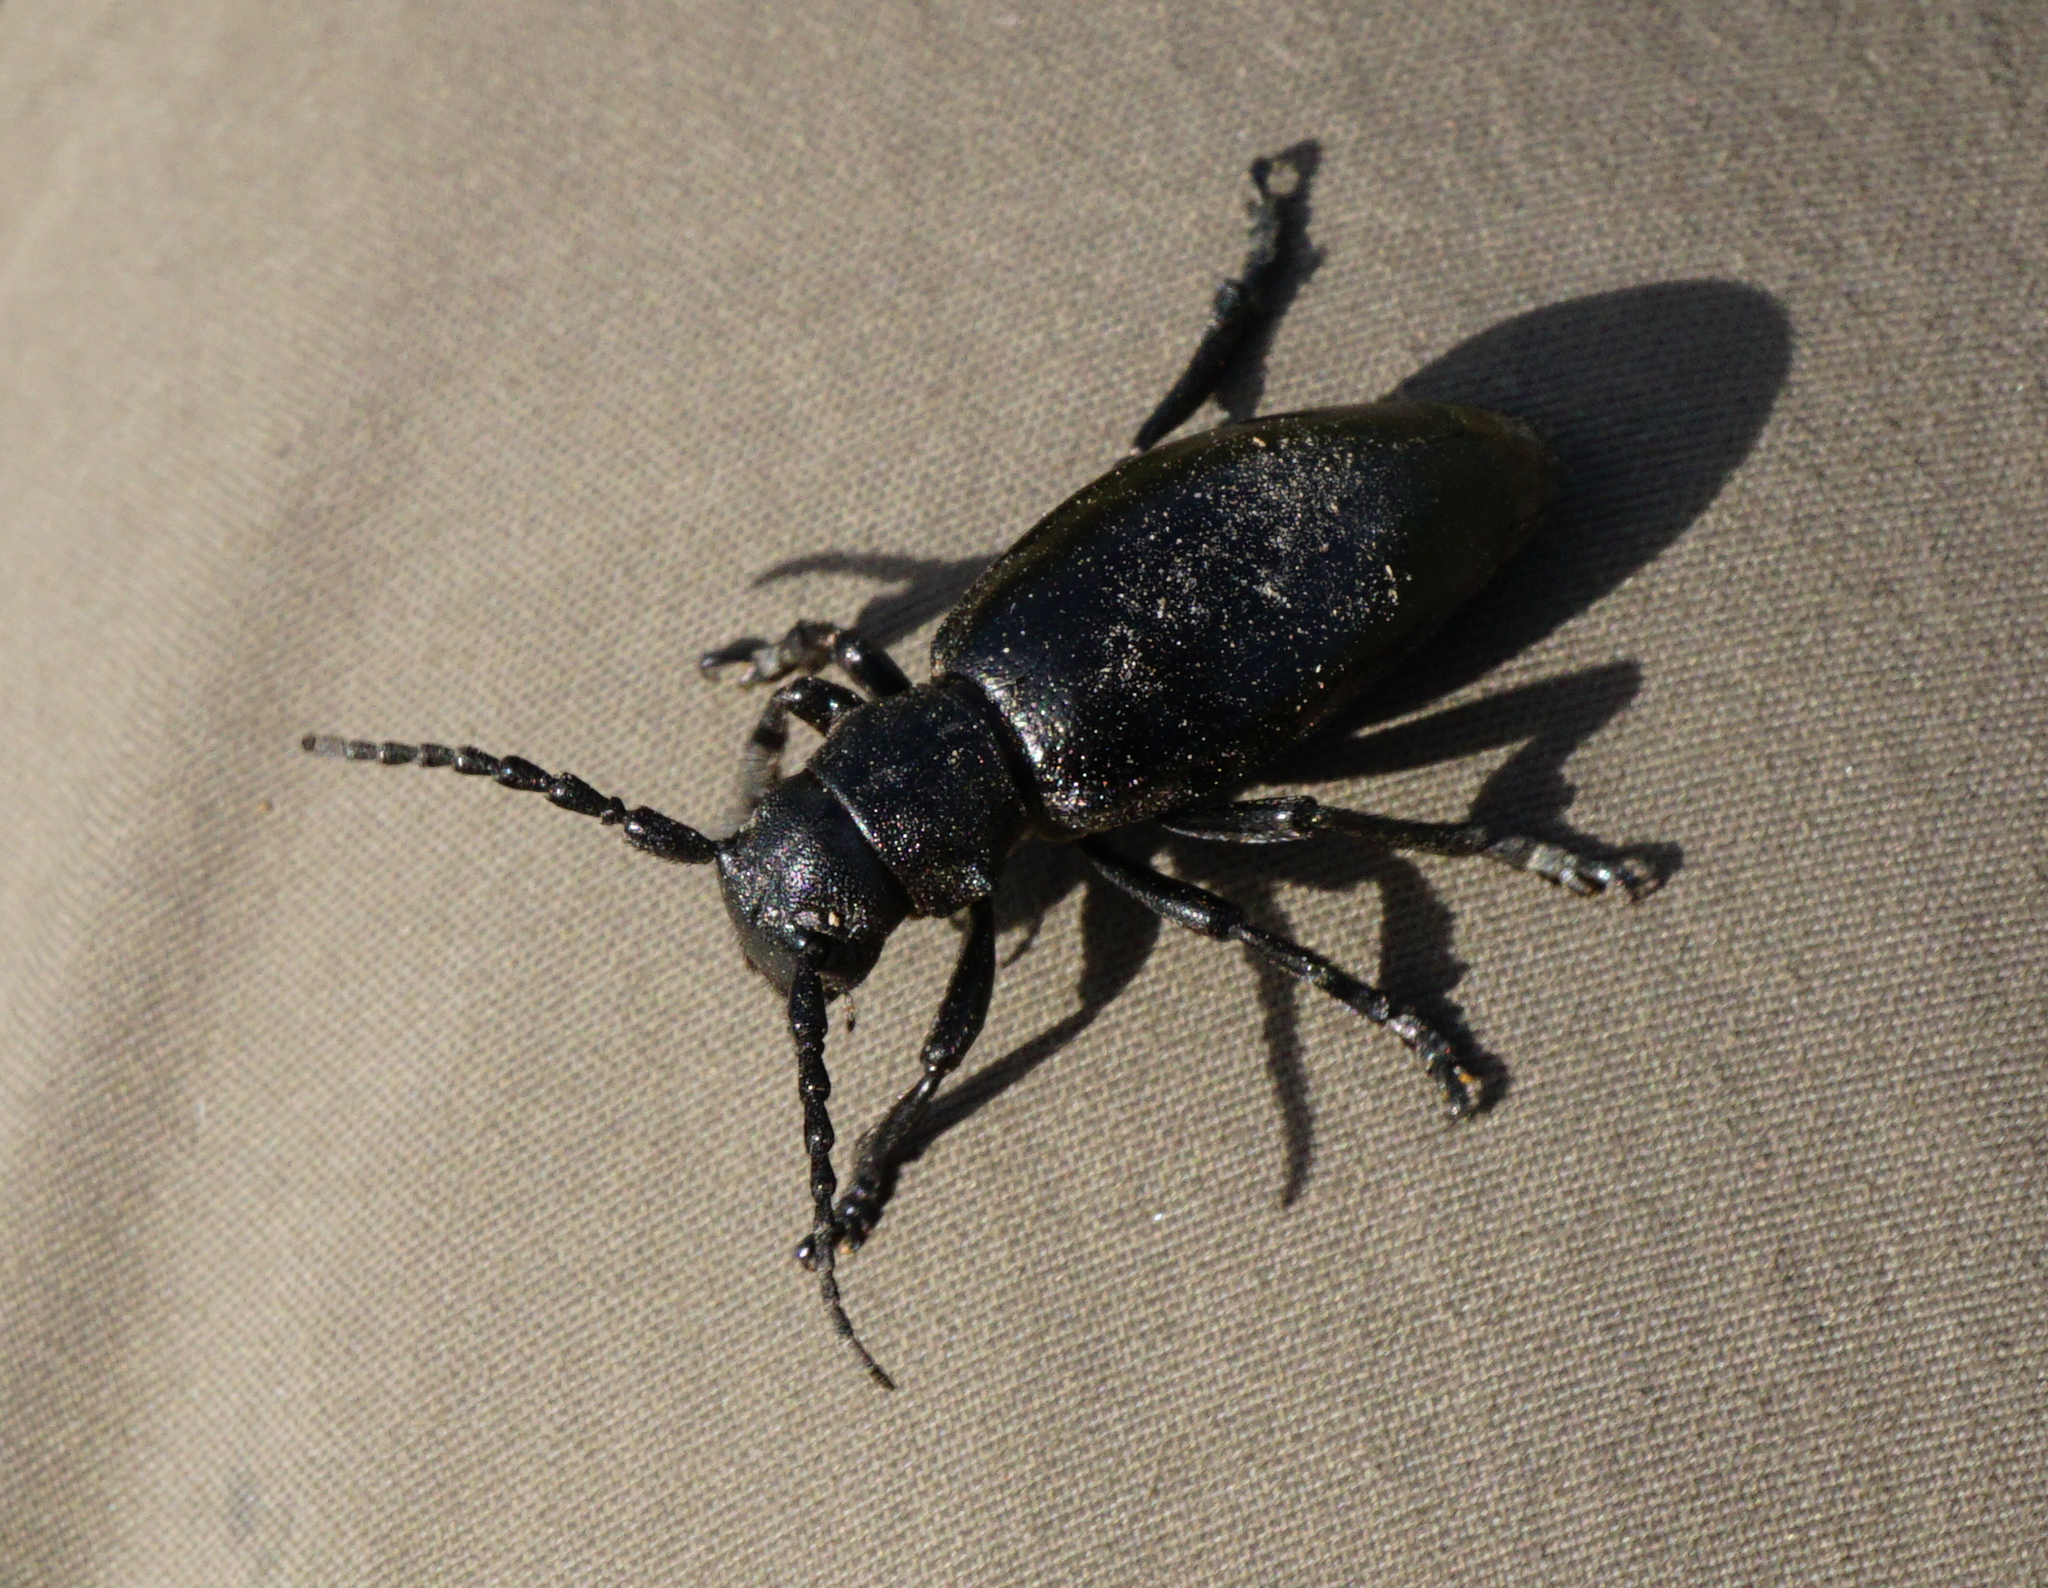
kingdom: Animalia
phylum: Arthropoda
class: Insecta
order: Coleoptera
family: Cerambycidae
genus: Dorcadion
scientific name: Dorcadion aethiops
